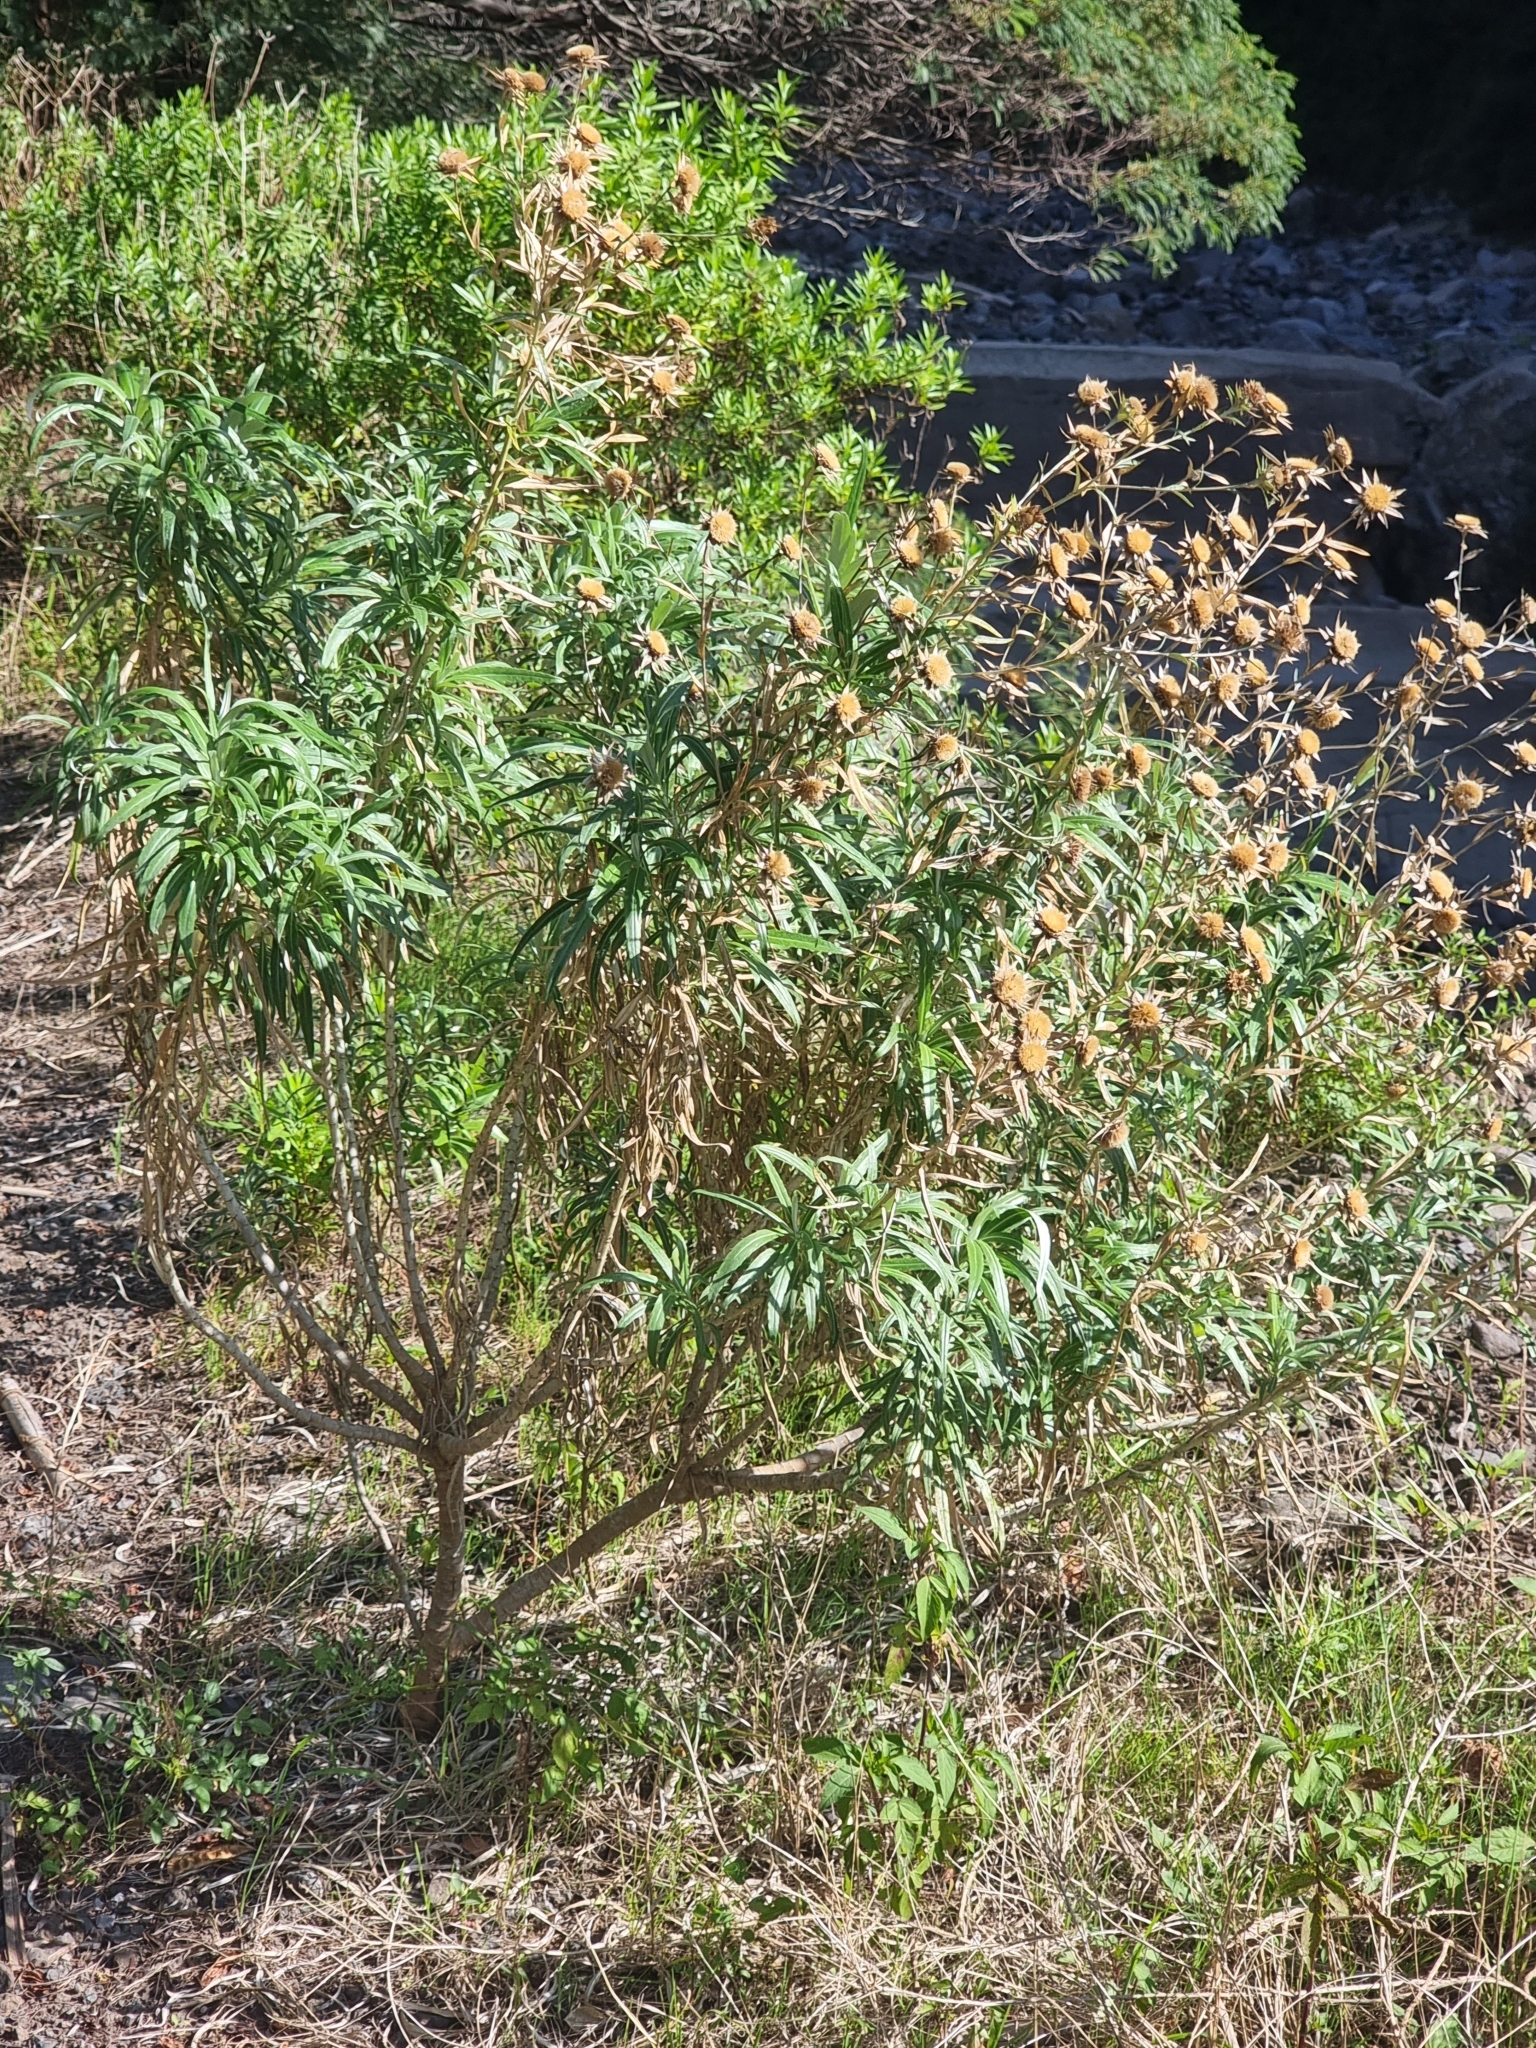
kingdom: Plantae
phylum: Tracheophyta
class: Magnoliopsida
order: Asterales
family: Asteraceae
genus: Carlina
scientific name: Carlina salicifolia
